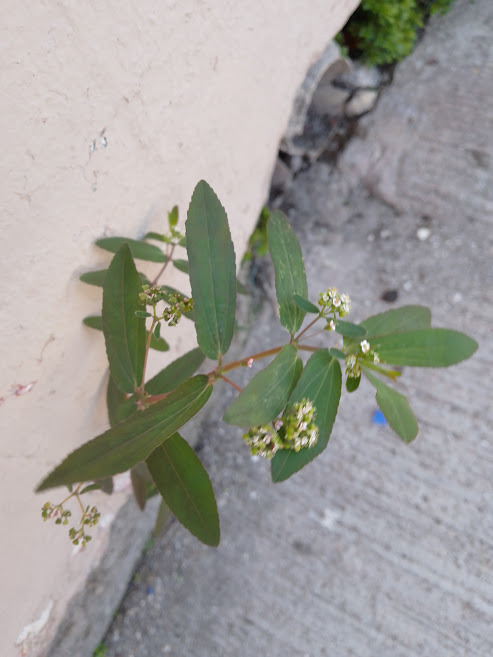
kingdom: Plantae
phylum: Tracheophyta
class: Magnoliopsida
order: Malpighiales
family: Euphorbiaceae
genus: Euphorbia
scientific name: Euphorbia hypericifolia
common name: Graceful sandmat
